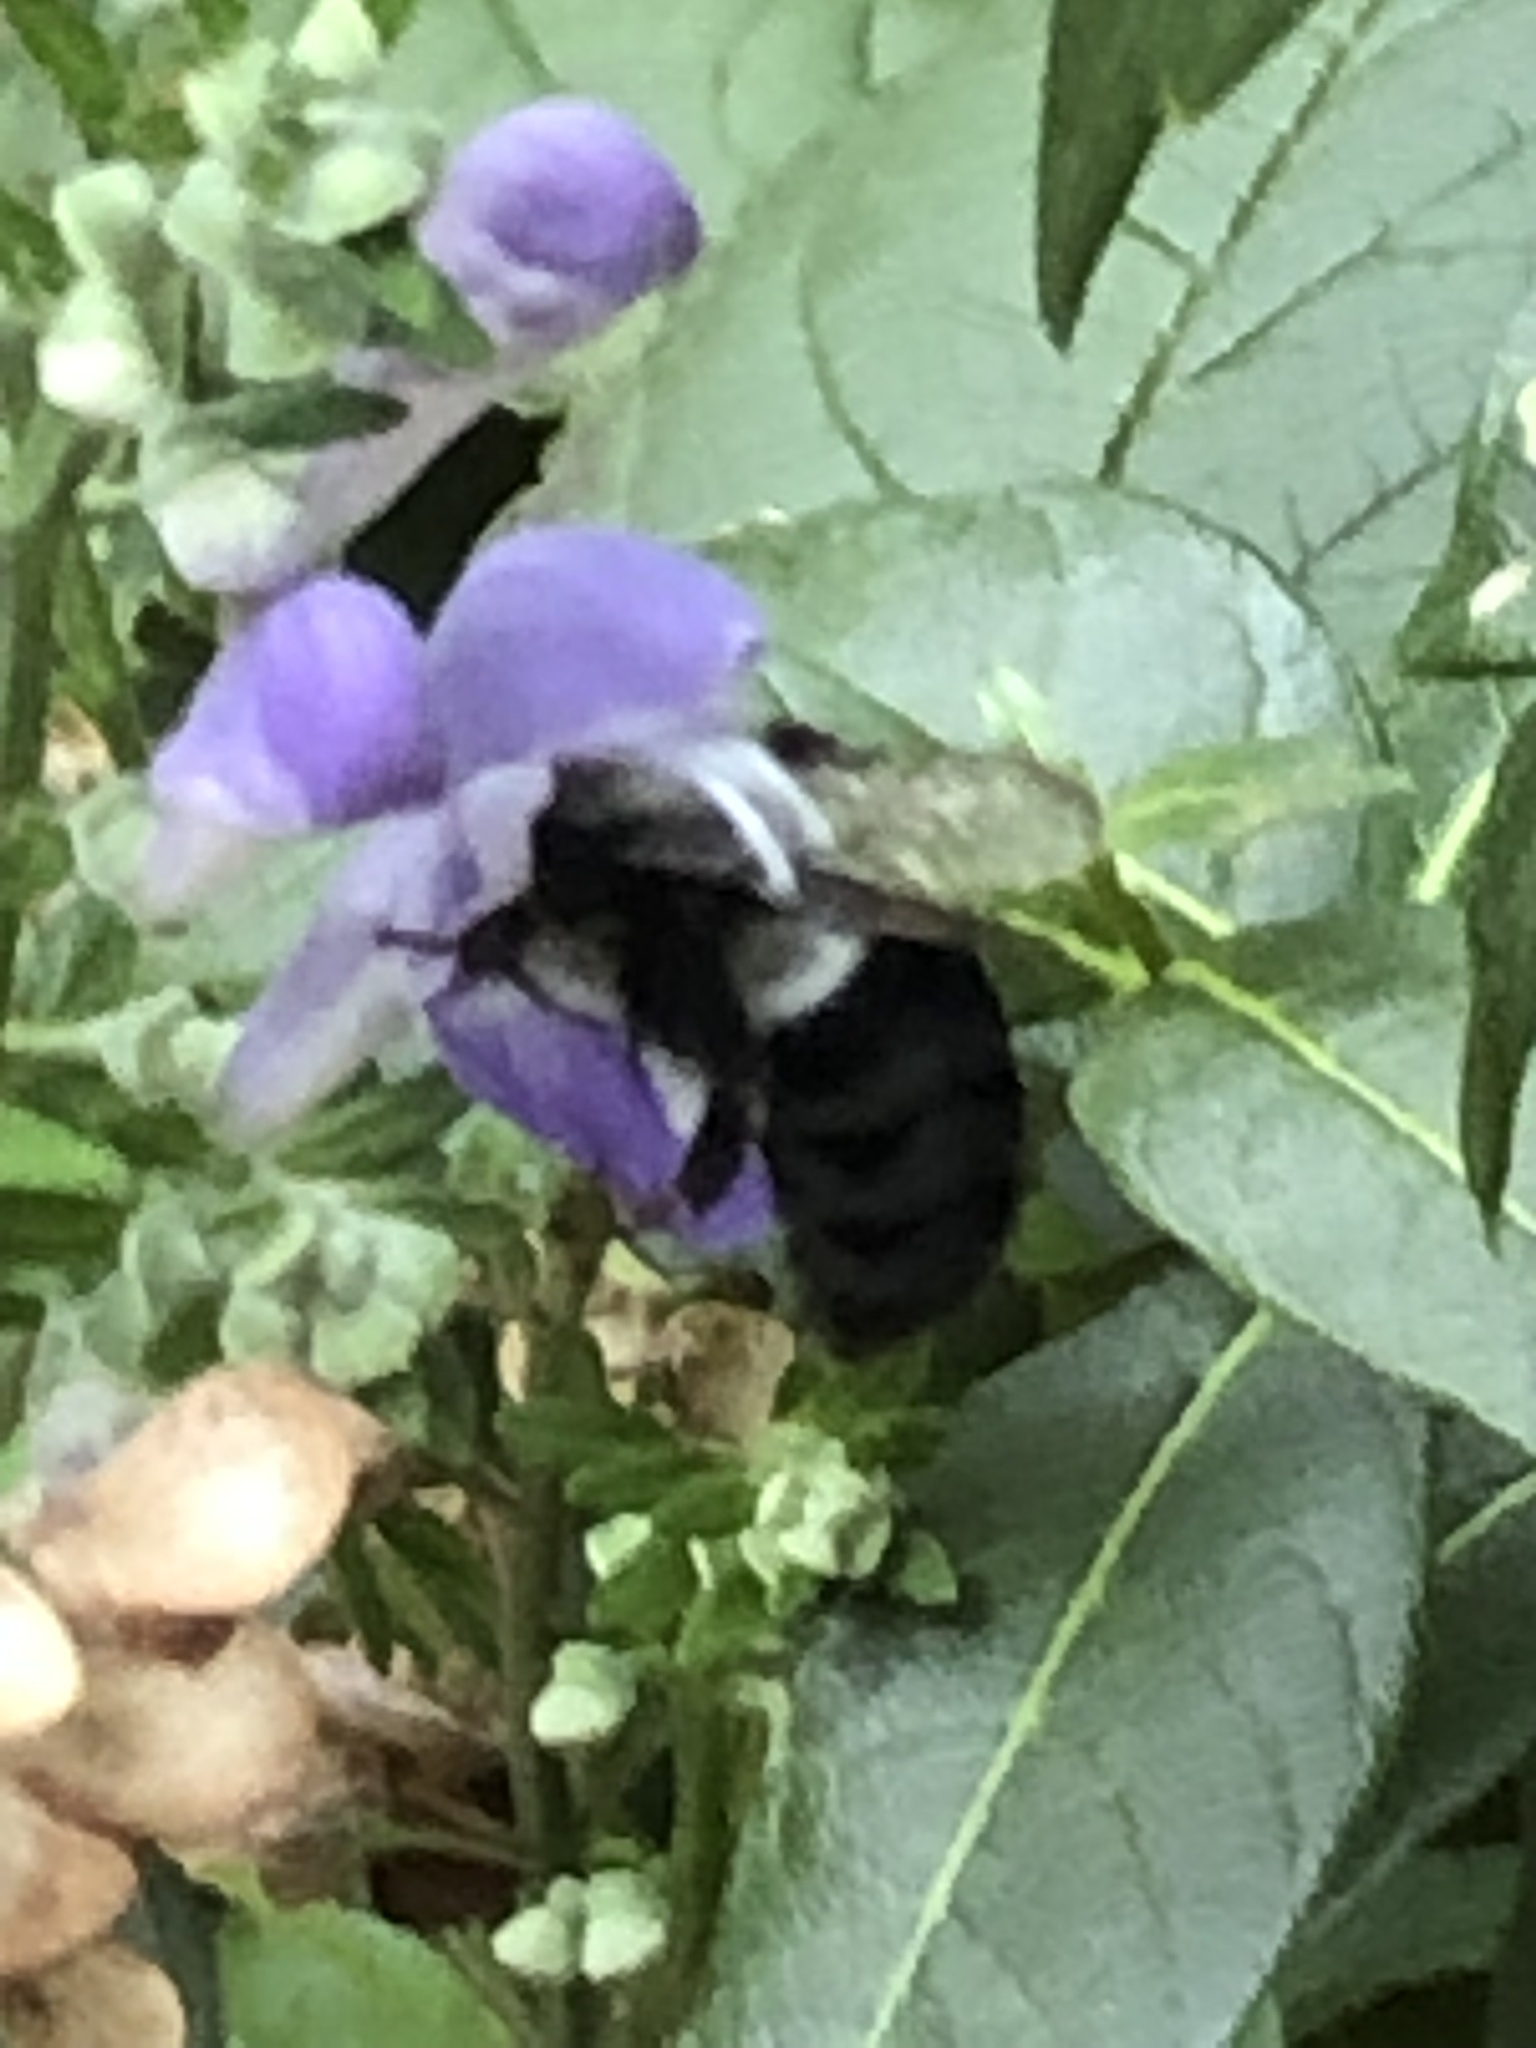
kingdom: Animalia
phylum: Arthropoda
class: Insecta
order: Hymenoptera
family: Apidae
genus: Bombus
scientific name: Bombus impatiens
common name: Common eastern bumble bee
